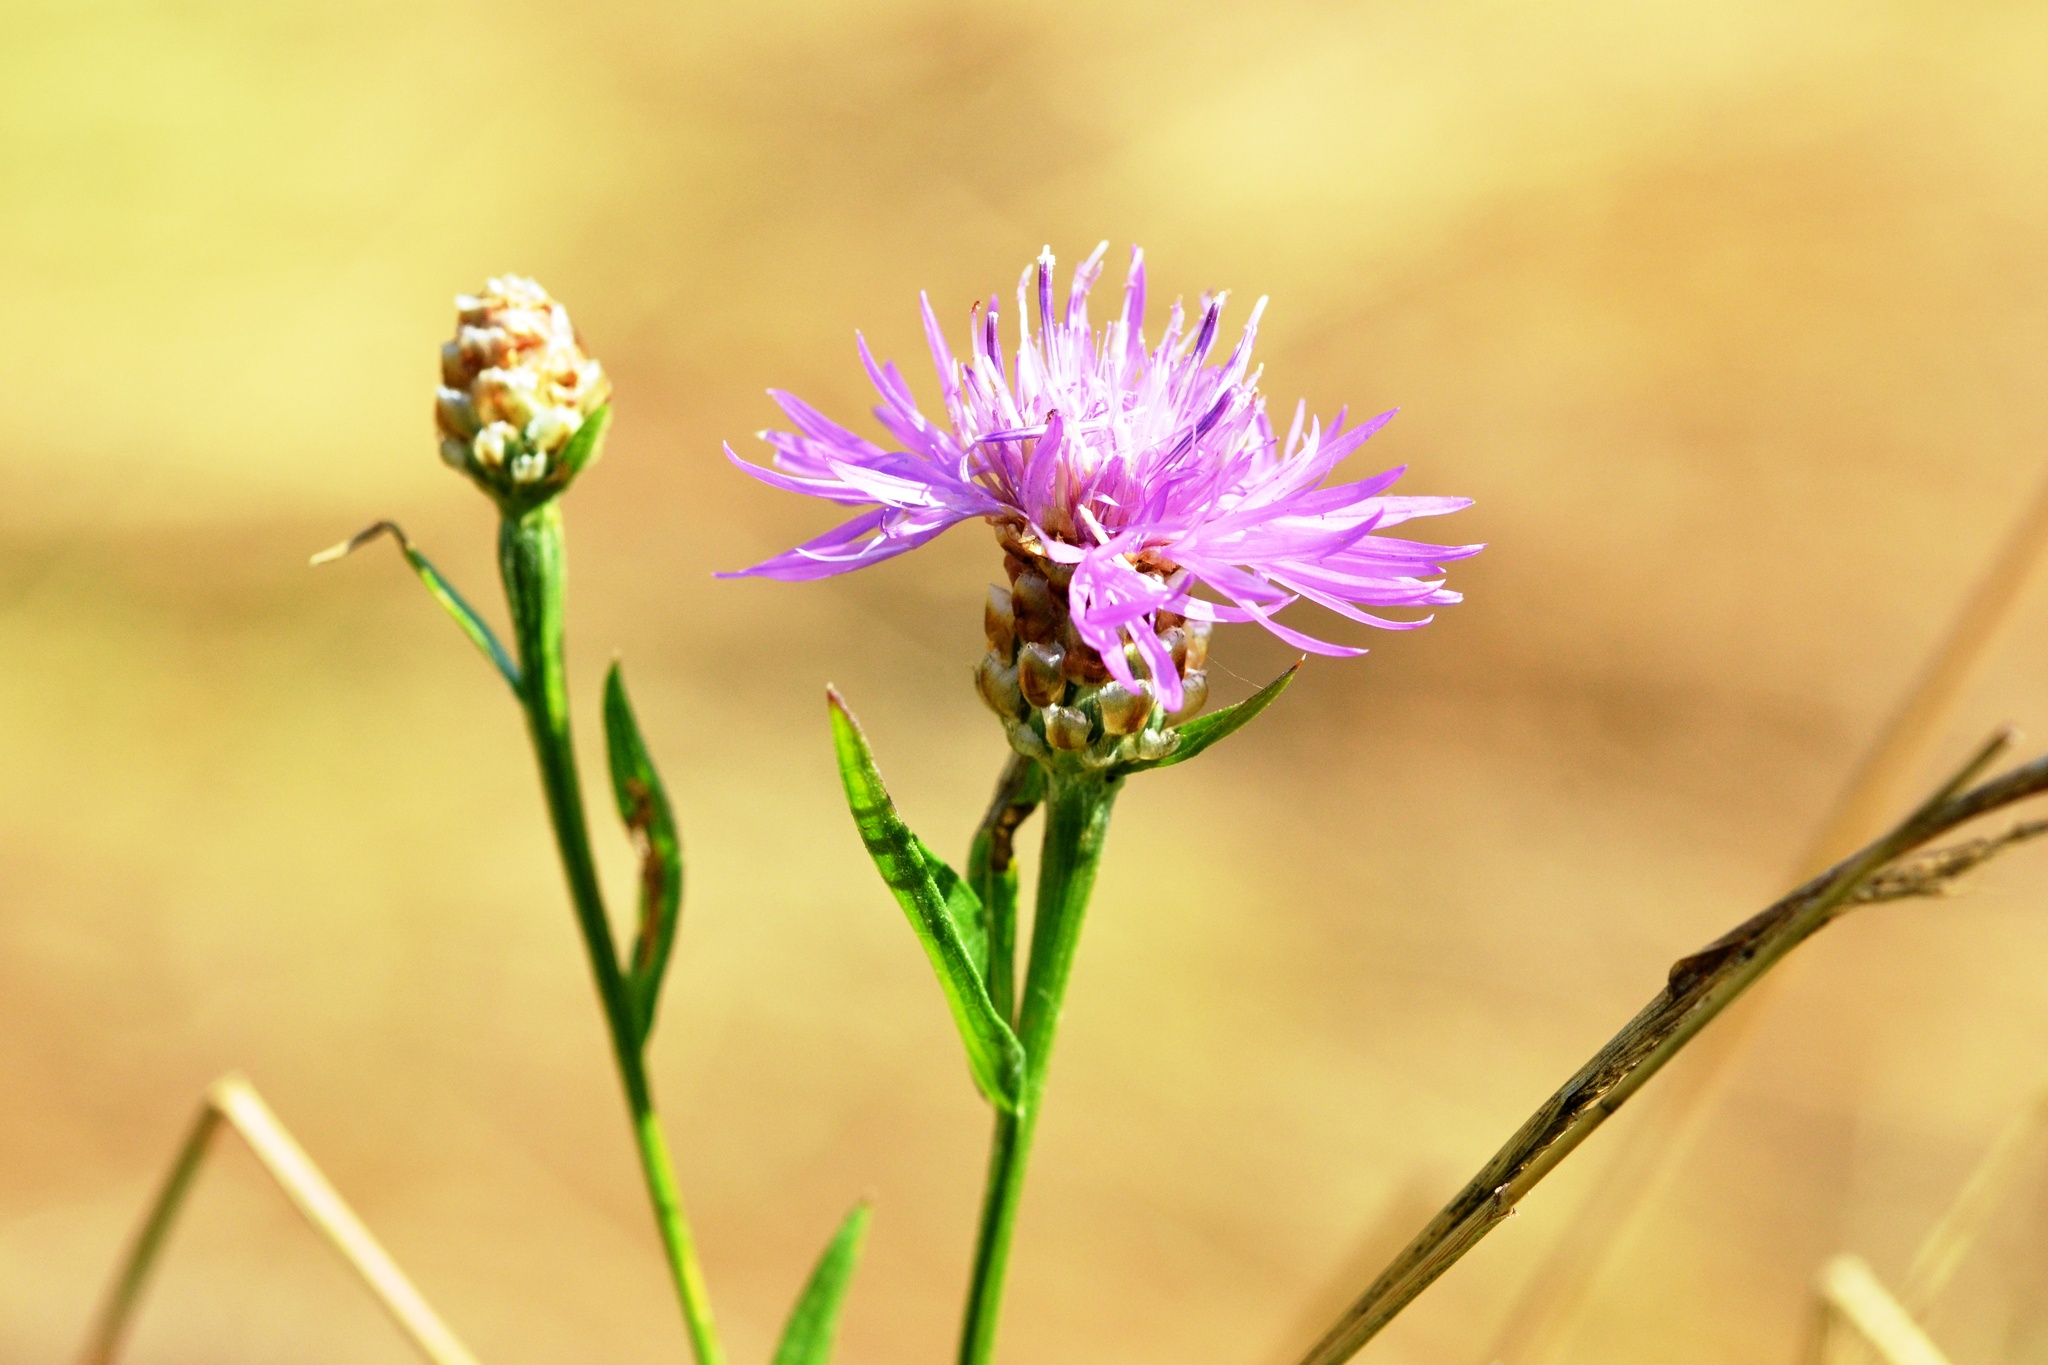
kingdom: Plantae
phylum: Tracheophyta
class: Magnoliopsida
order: Asterales
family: Asteraceae
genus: Centaurea
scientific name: Centaurea jacea
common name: Brown knapweed
